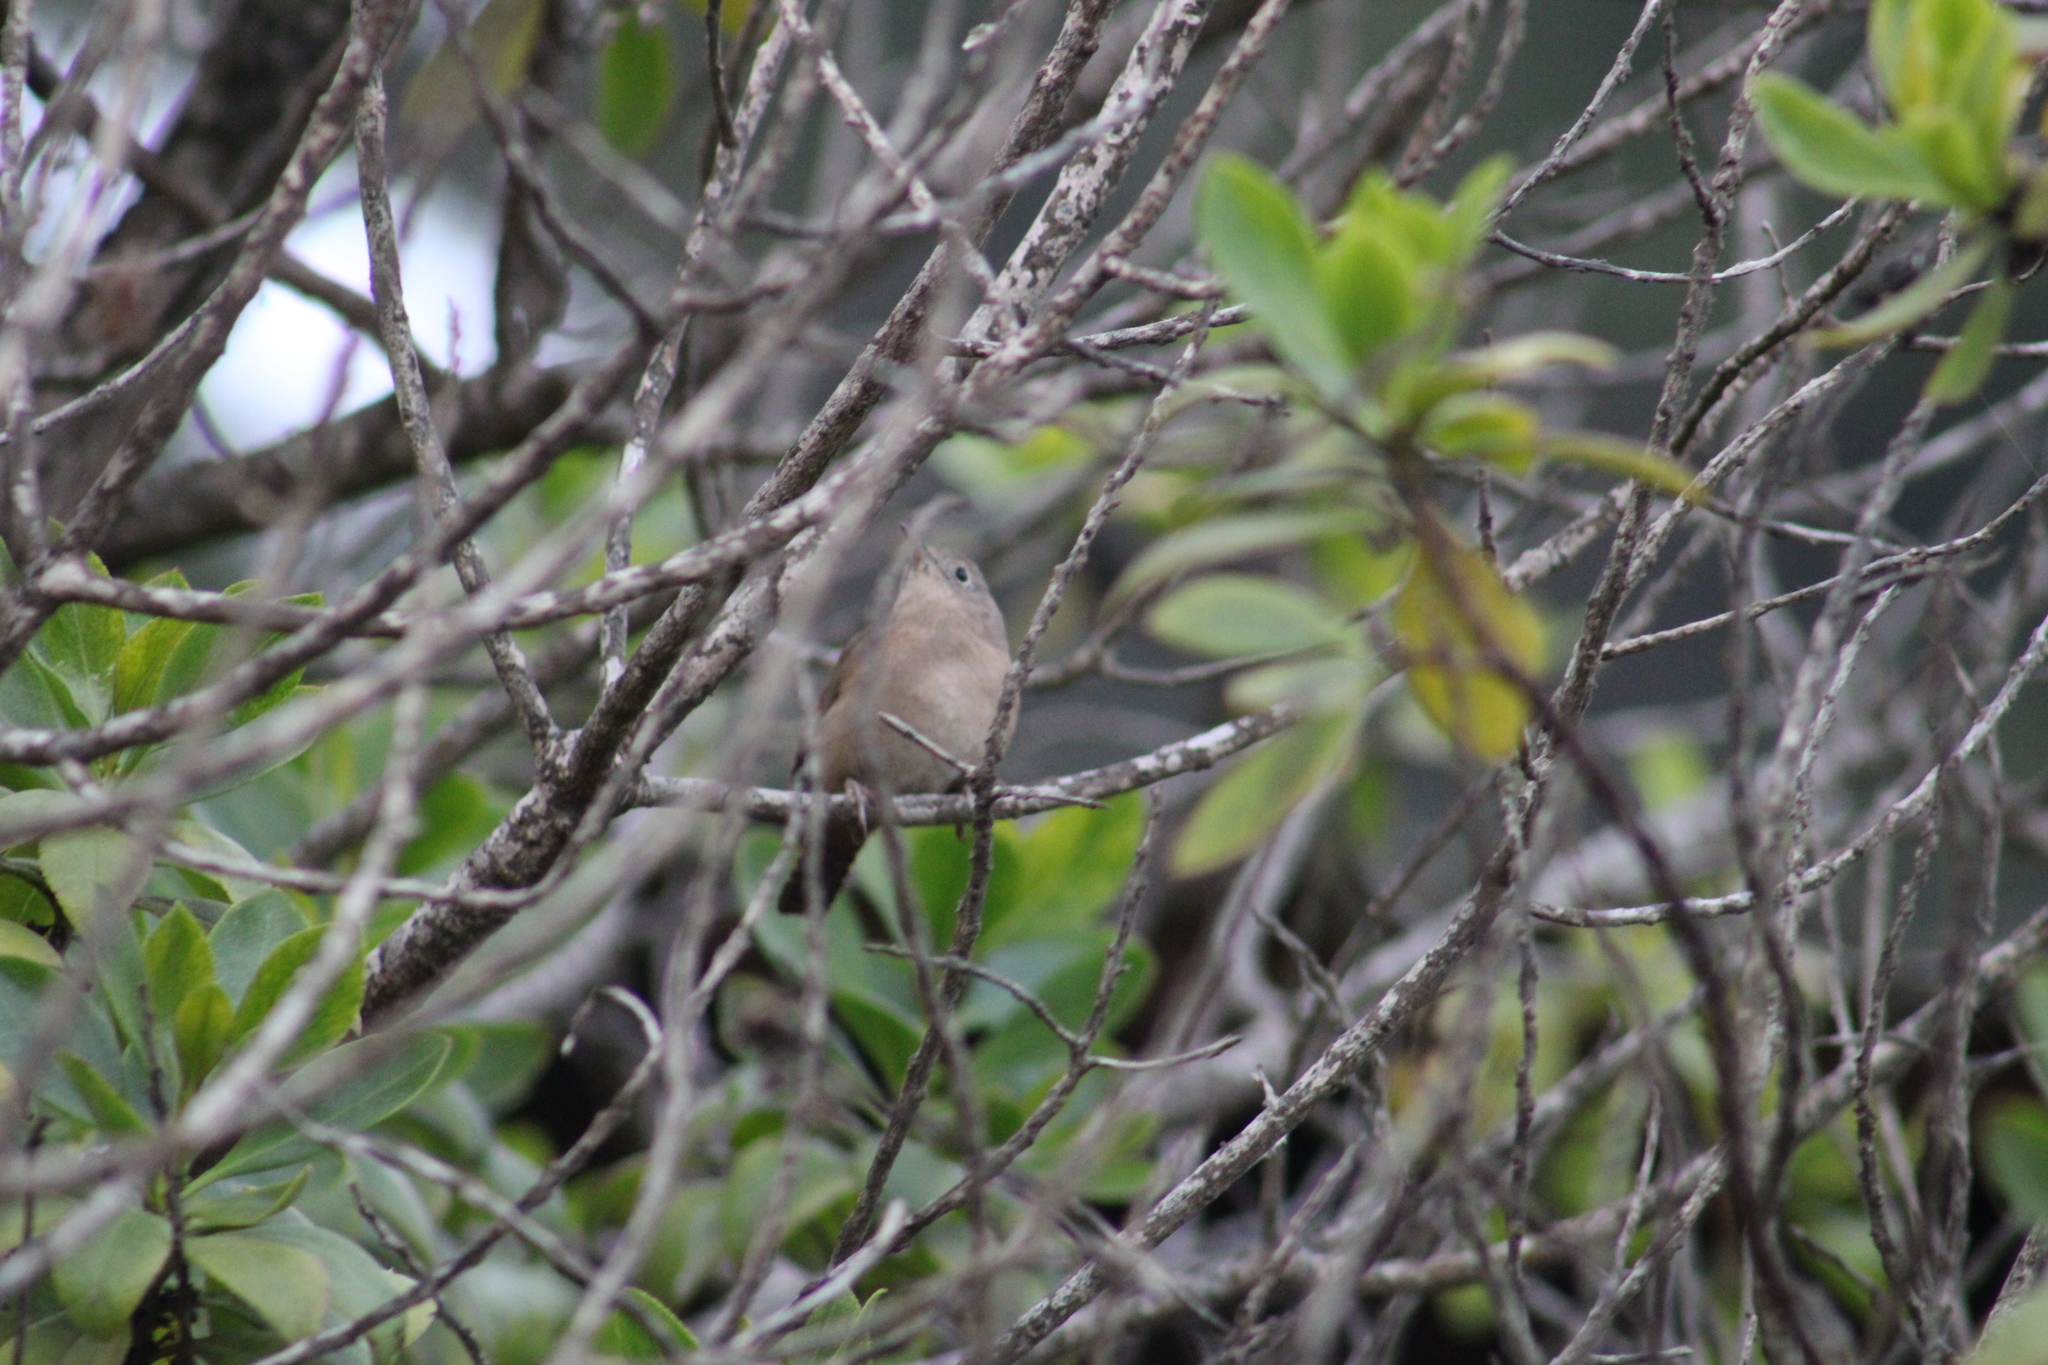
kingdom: Animalia
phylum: Chordata
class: Aves
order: Passeriformes
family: Troglodytidae
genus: Troglodytes
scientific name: Troglodytes aedon
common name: House wren
